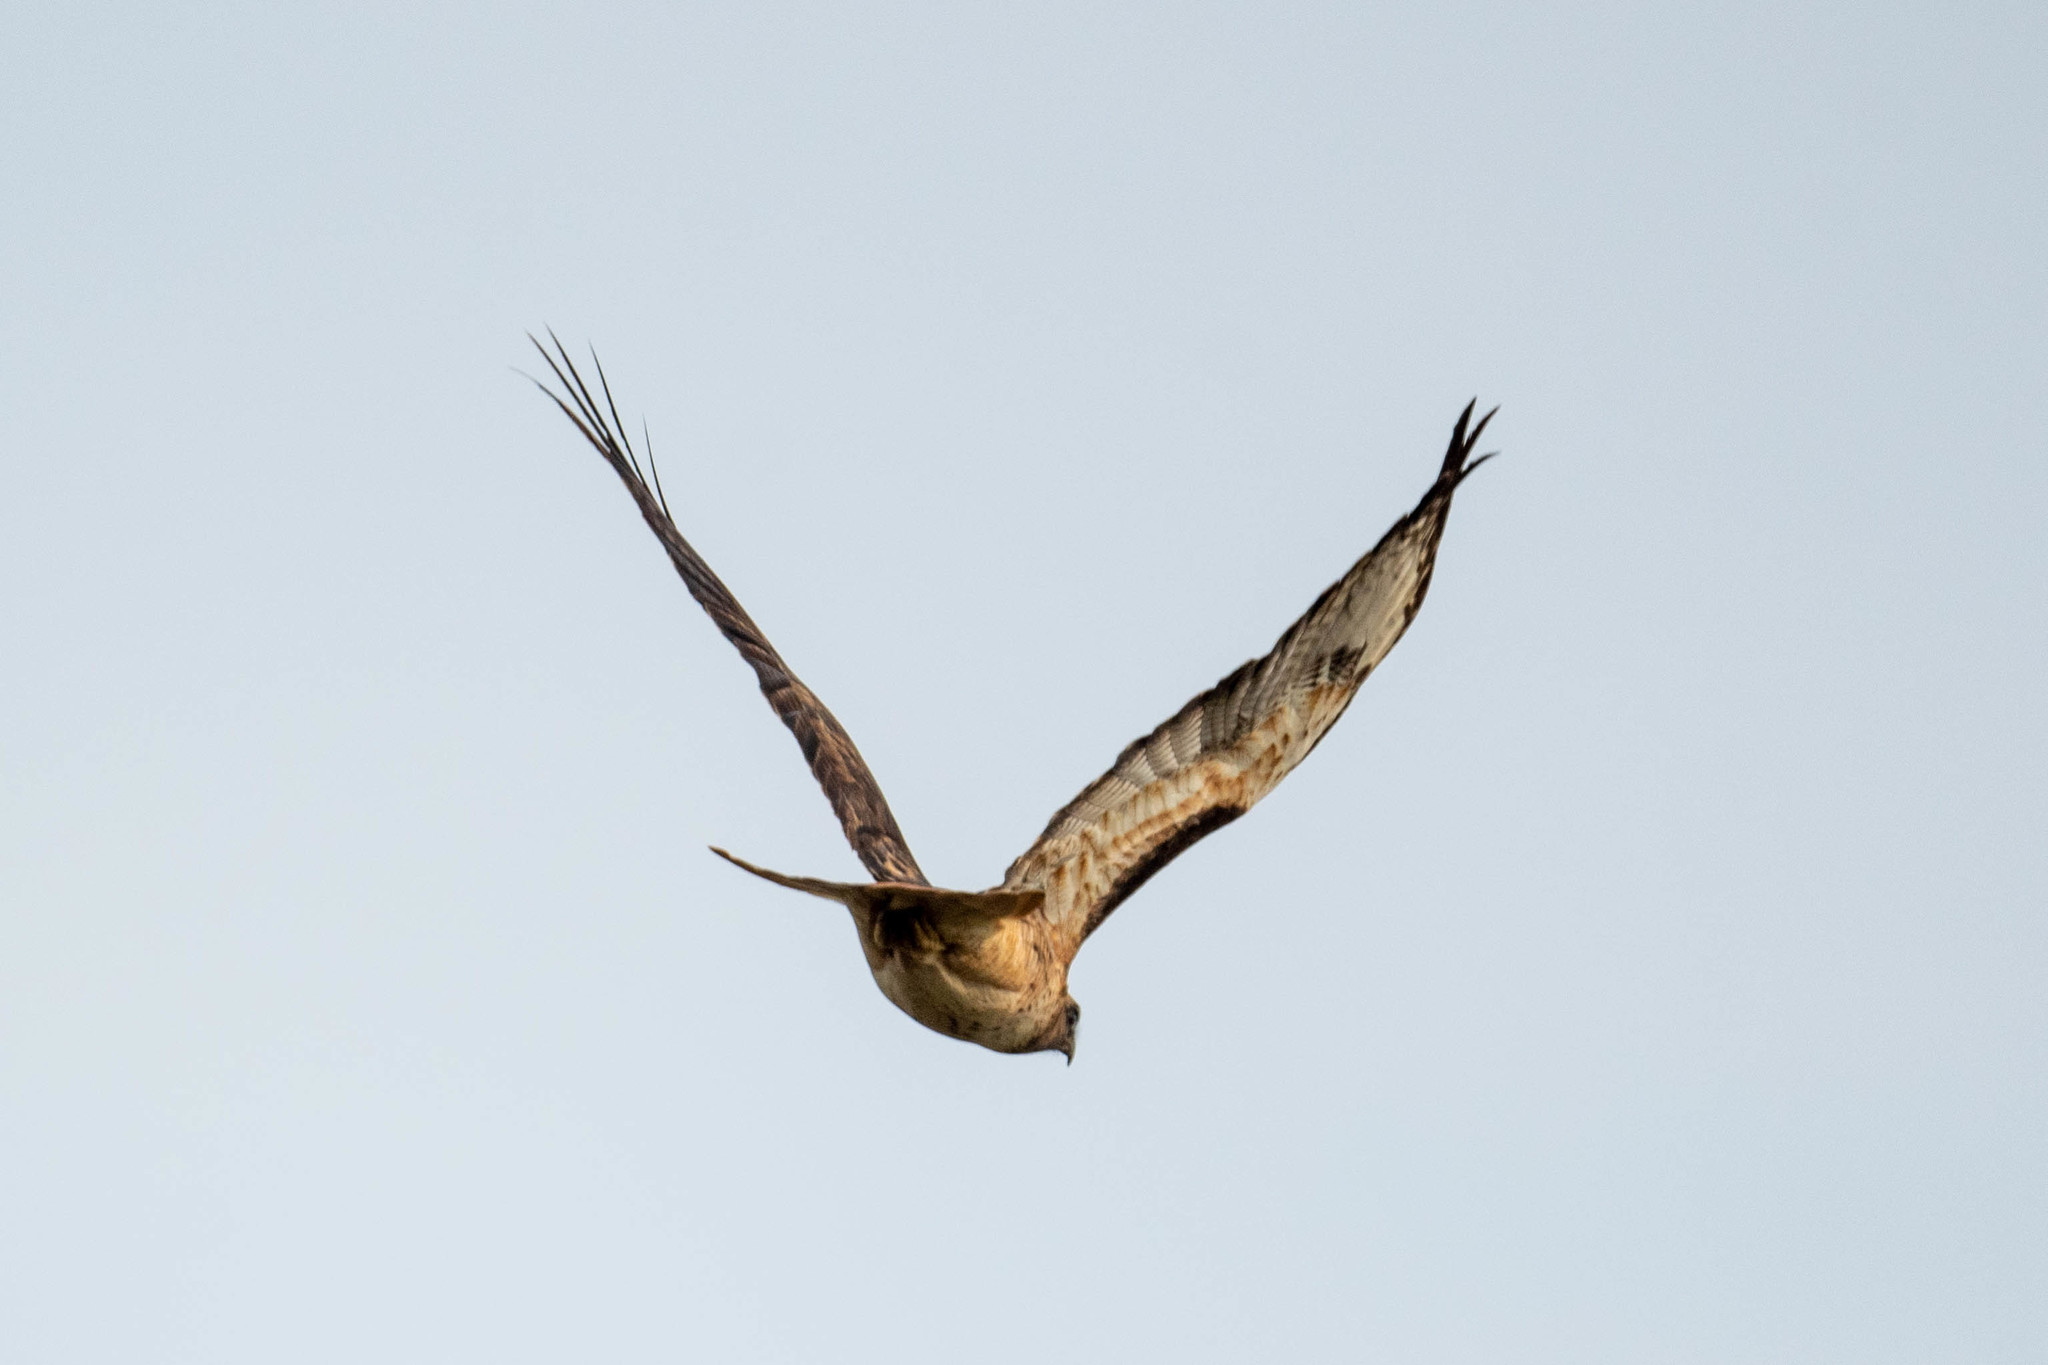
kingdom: Animalia
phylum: Chordata
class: Aves
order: Accipitriformes
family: Accipitridae
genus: Buteo
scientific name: Buteo jamaicensis
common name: Red-tailed hawk
